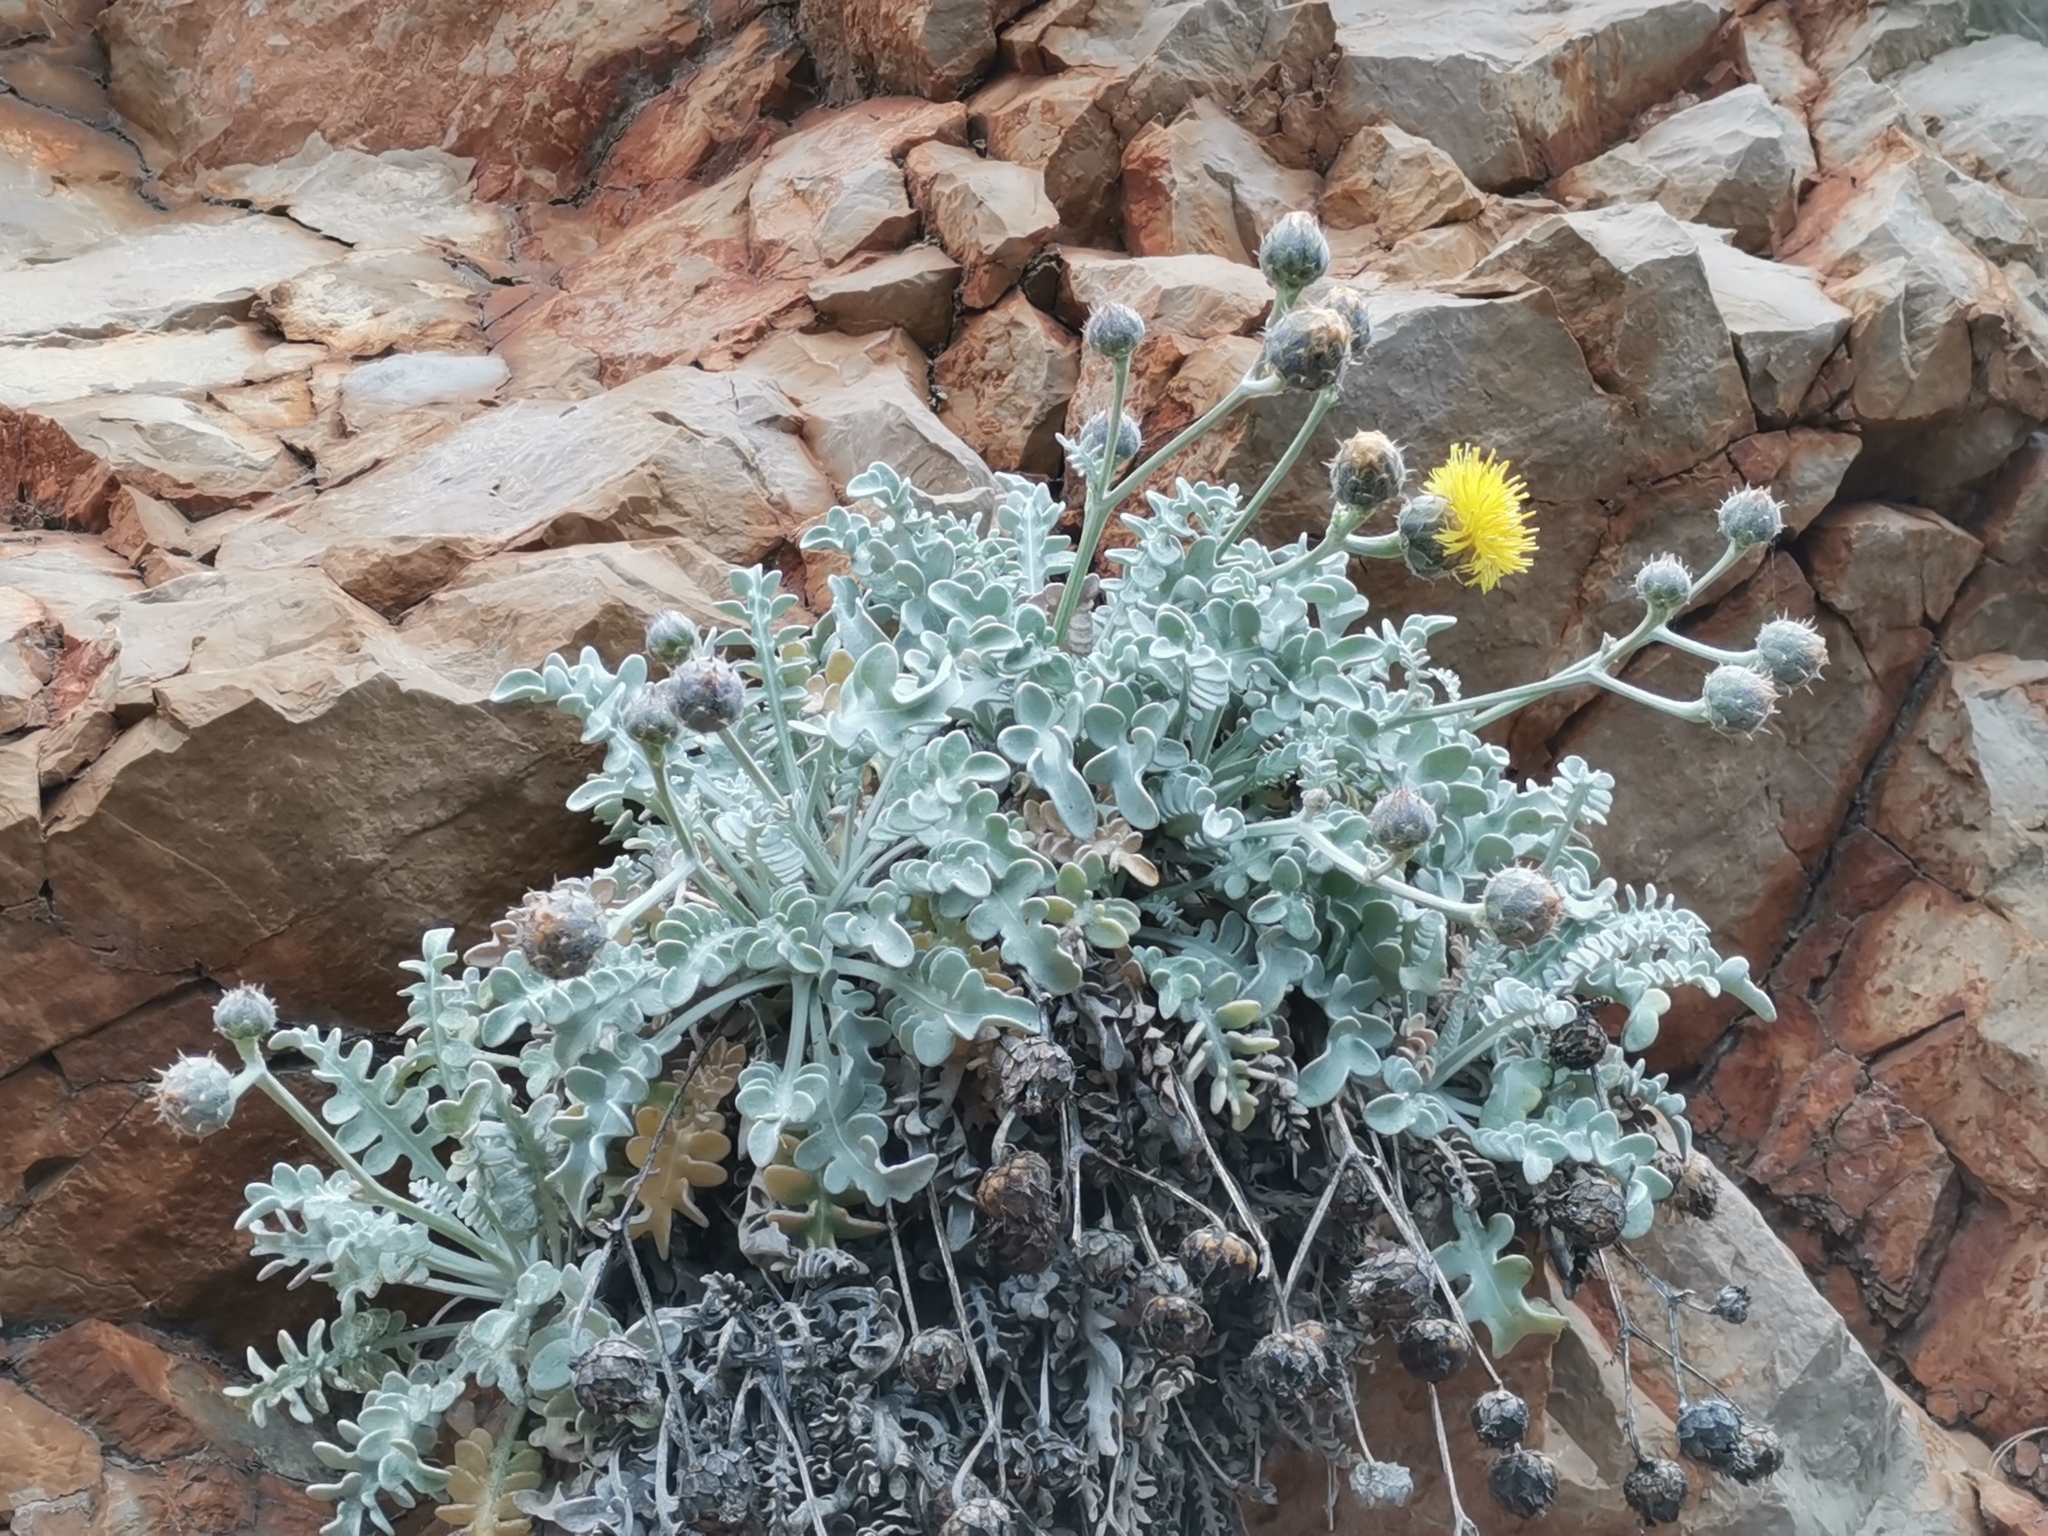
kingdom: Plantae
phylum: Tracheophyta
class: Magnoliopsida
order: Asterales
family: Asteraceae
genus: Centaurea
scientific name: Centaurea ragusina
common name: Dusty-miller
